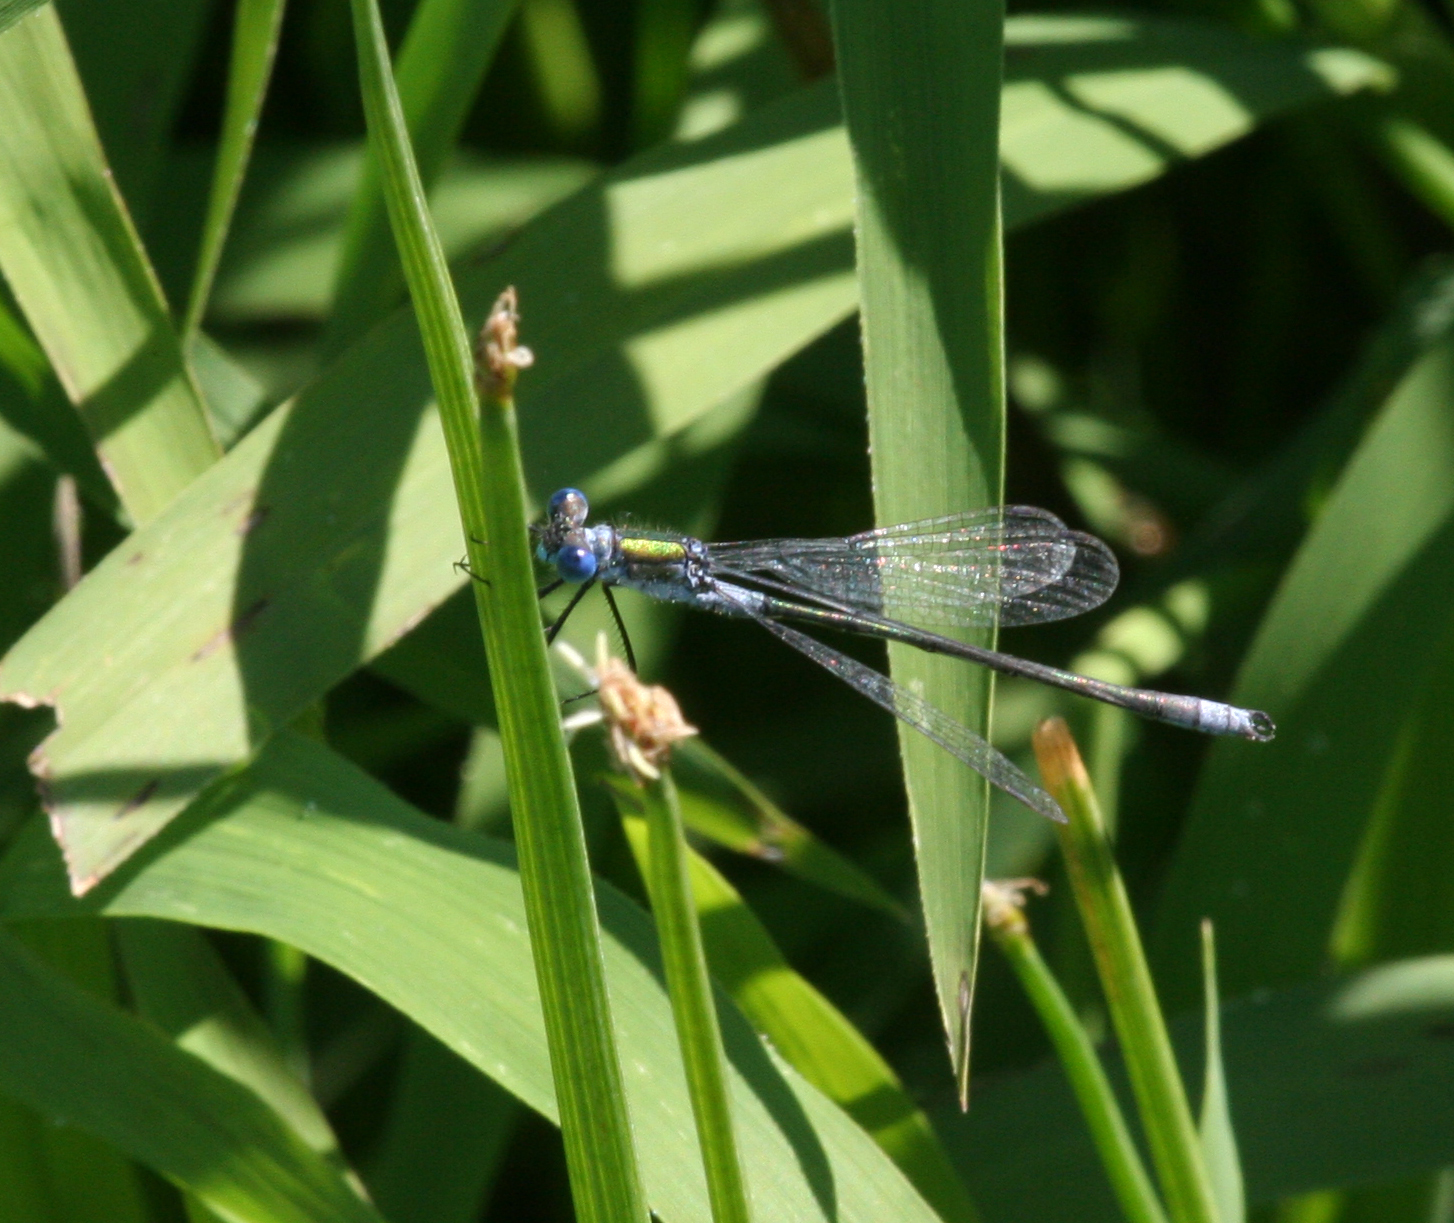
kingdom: Animalia
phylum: Arthropoda
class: Insecta
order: Odonata
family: Lestidae
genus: Lestes
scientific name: Lestes sponsa
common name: Common spreadwing
